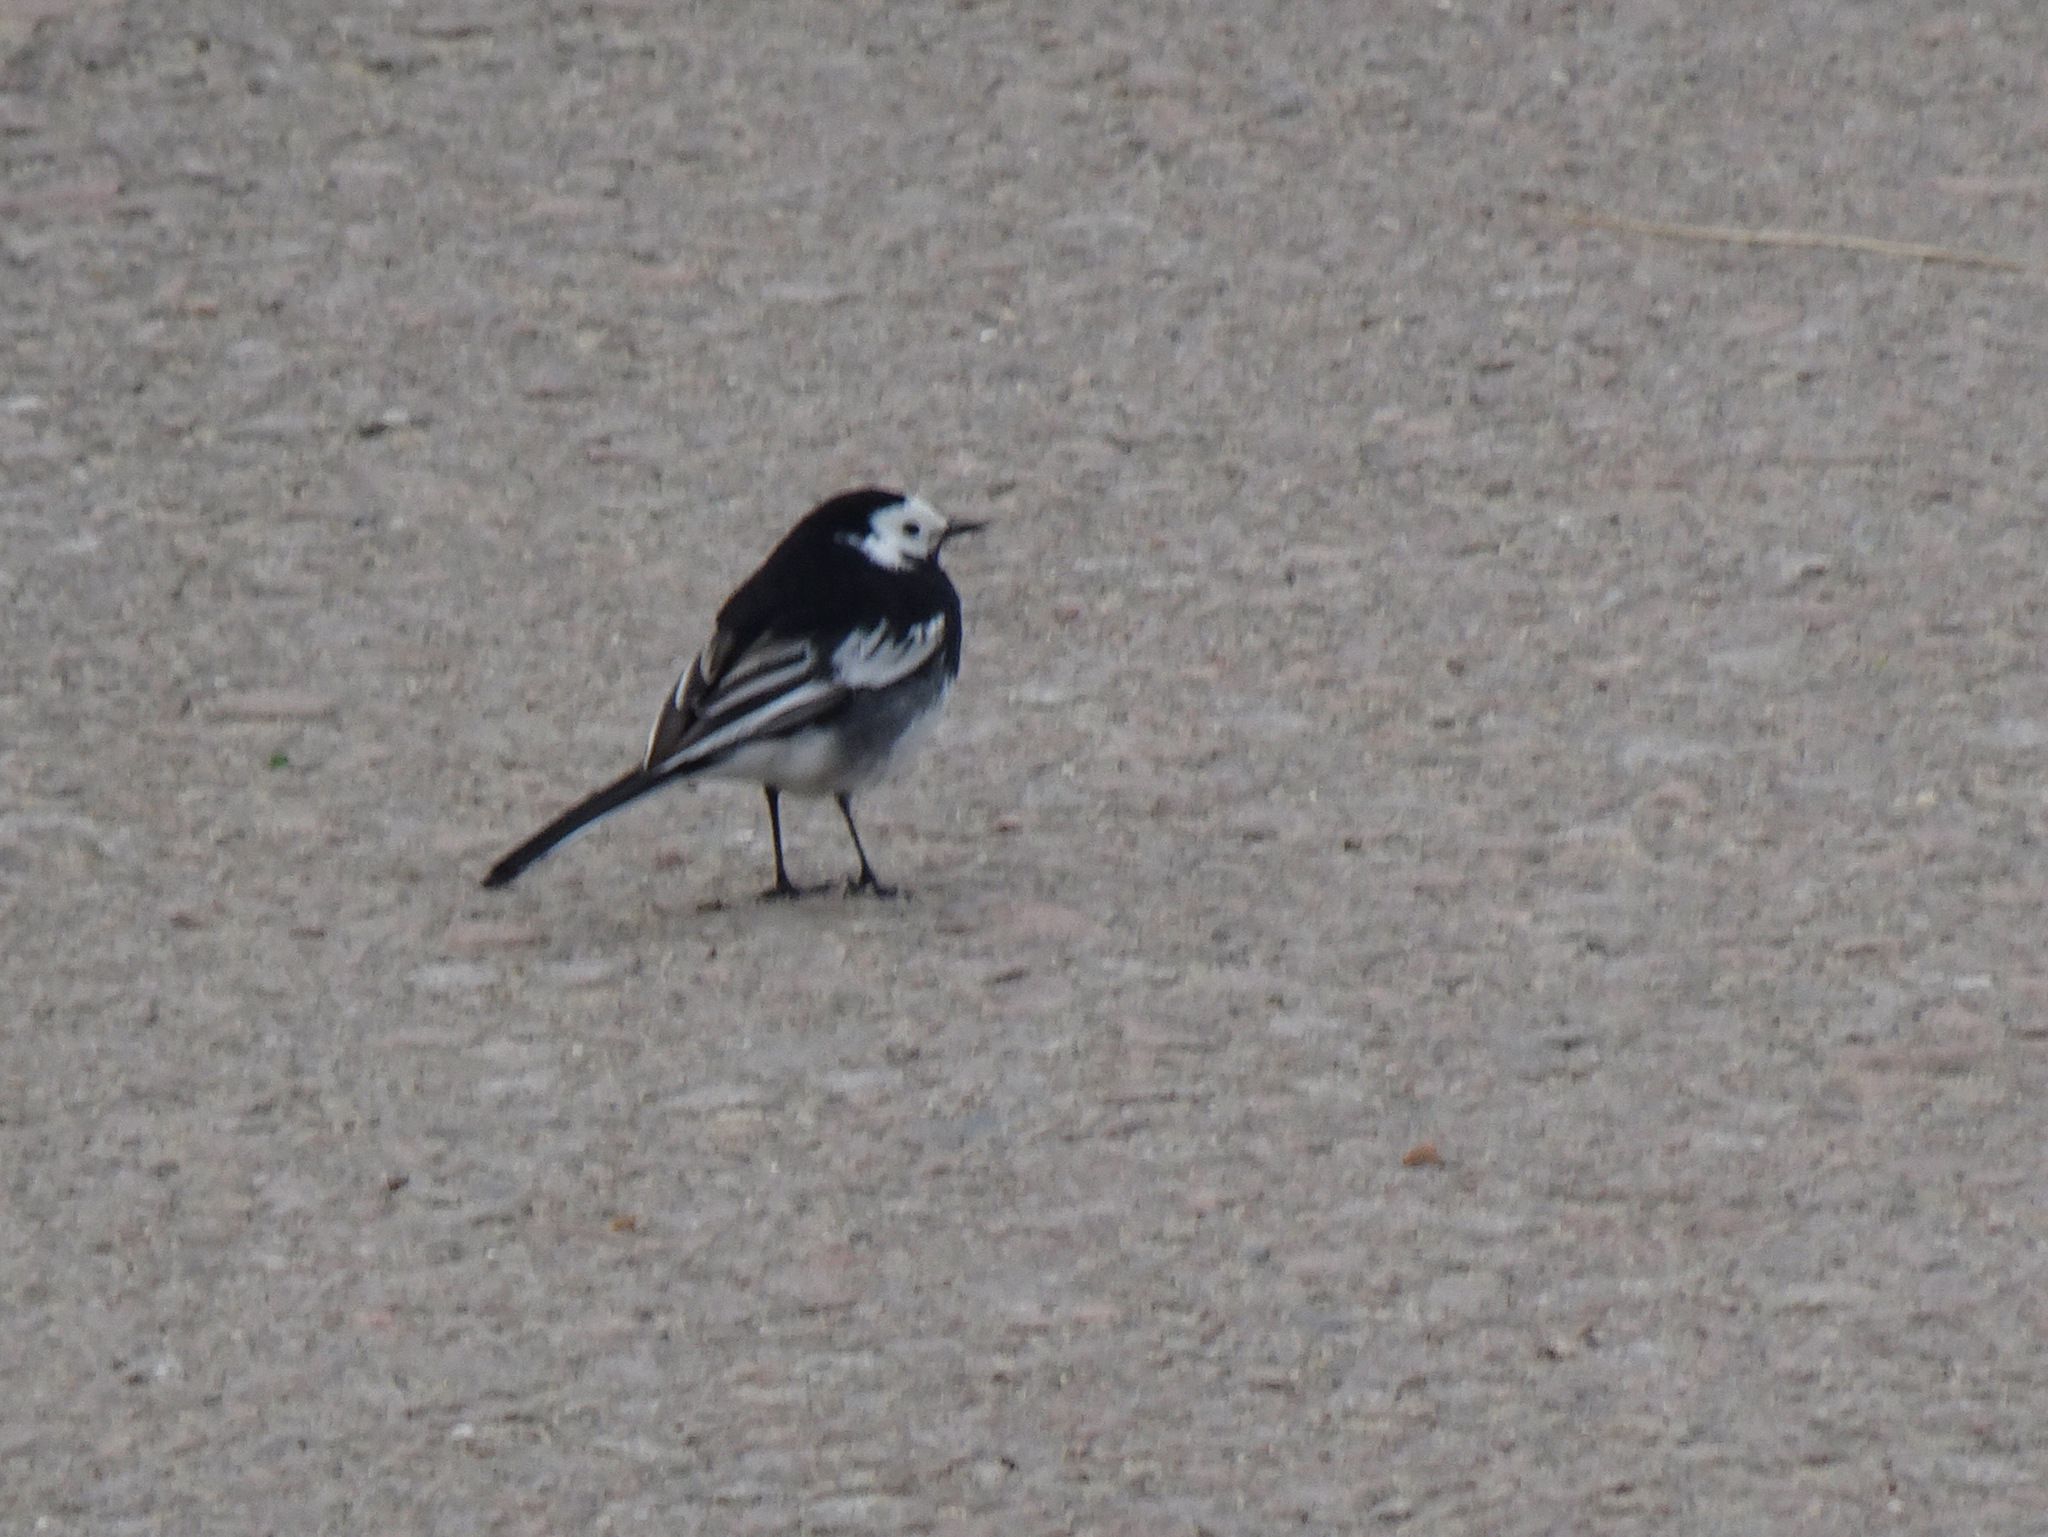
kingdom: Animalia
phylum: Chordata
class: Aves
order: Passeriformes
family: Motacillidae
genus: Motacilla
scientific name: Motacilla alba
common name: White wagtail
